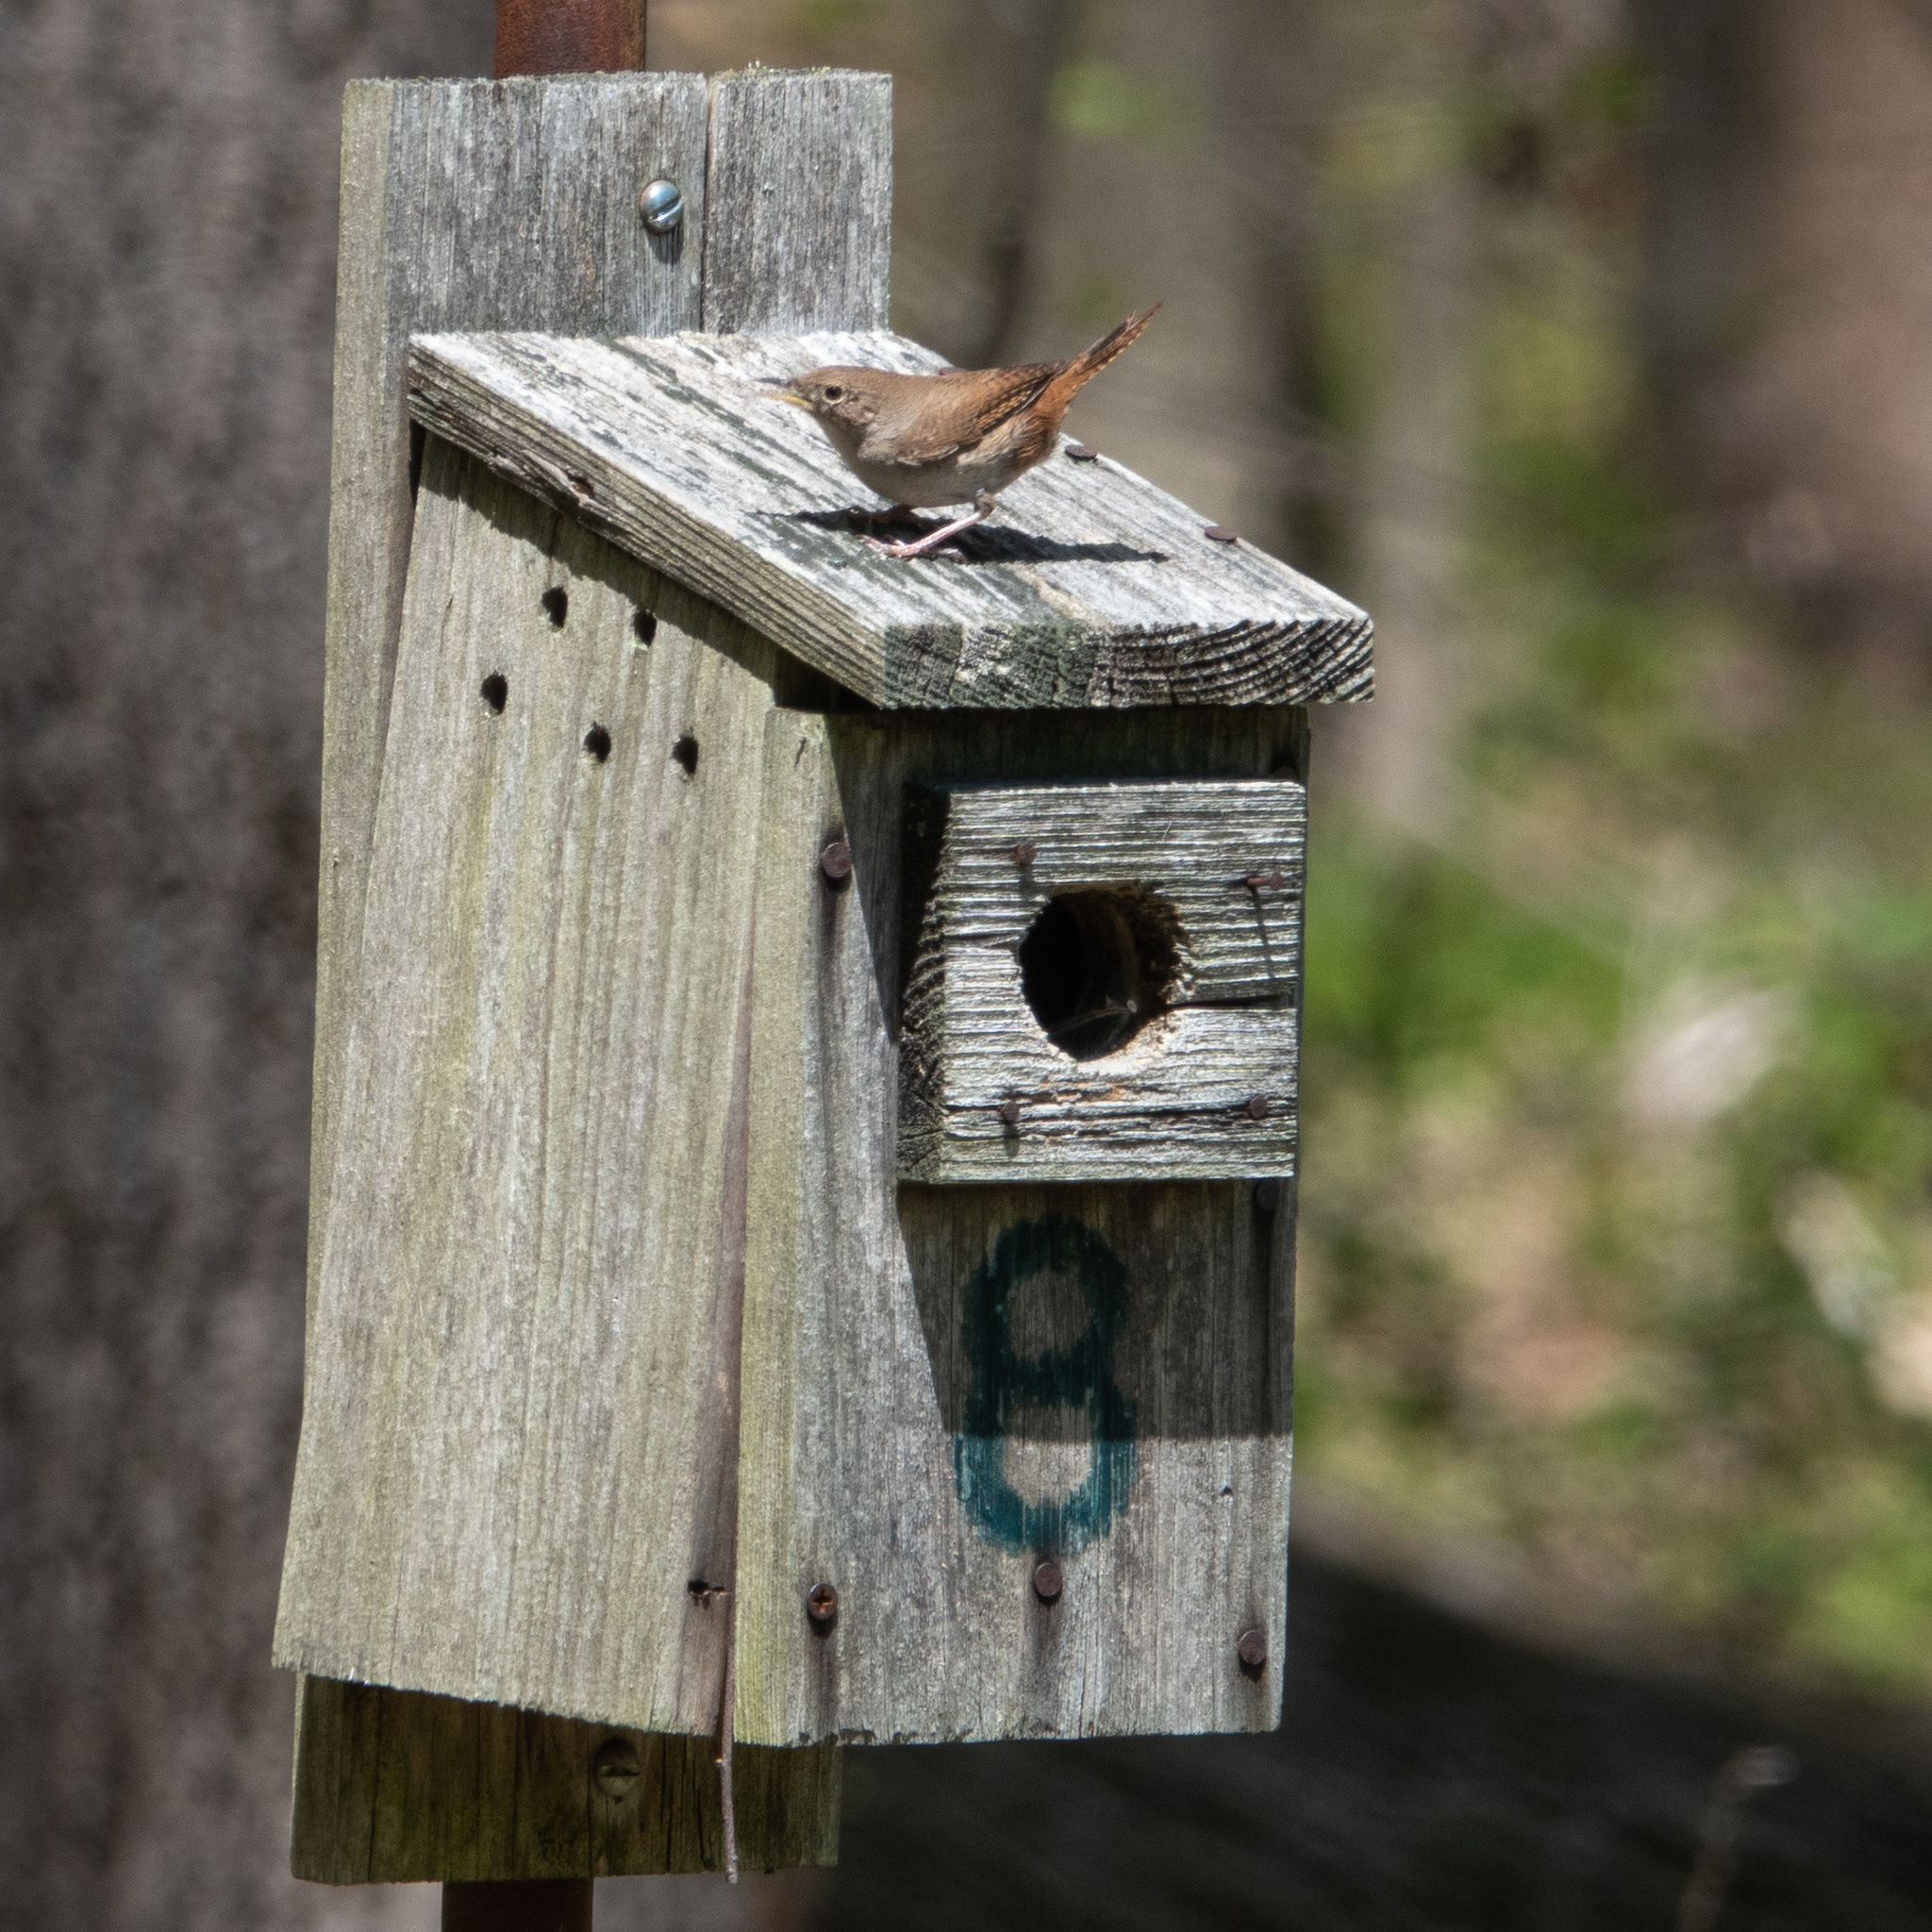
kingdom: Animalia
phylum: Chordata
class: Aves
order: Passeriformes
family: Troglodytidae
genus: Troglodytes
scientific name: Troglodytes aedon
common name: House wren
